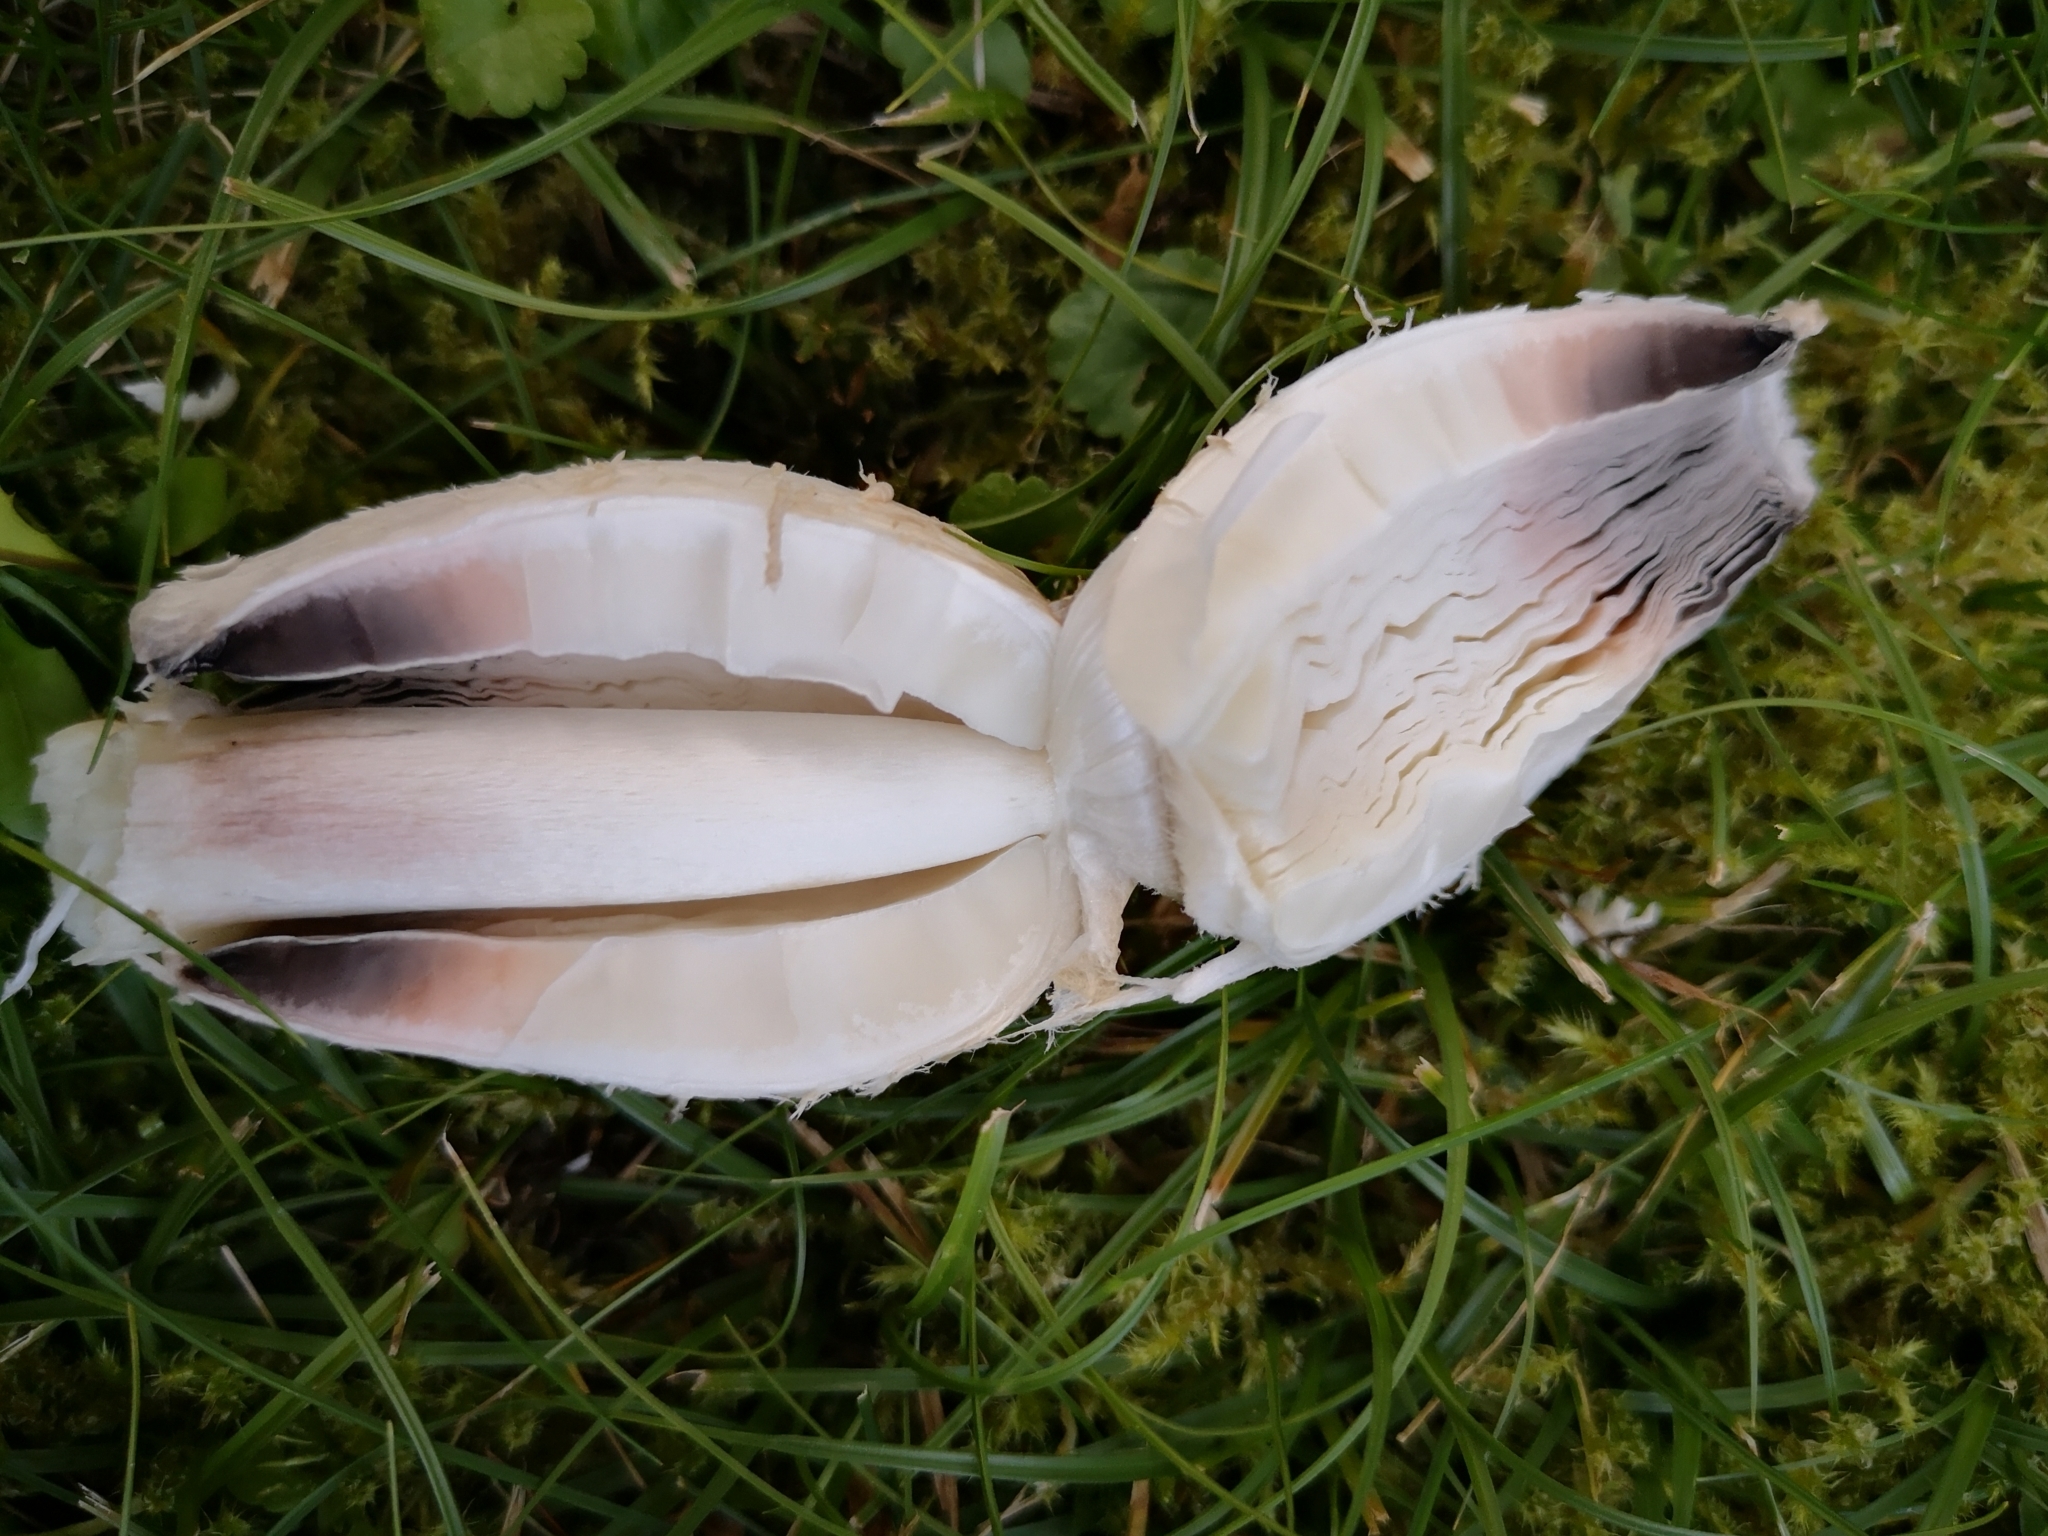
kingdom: Fungi
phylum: Basidiomycota
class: Agaricomycetes
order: Agaricales
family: Agaricaceae
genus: Coprinus
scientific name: Coprinus comatus
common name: Lawyer's wig
